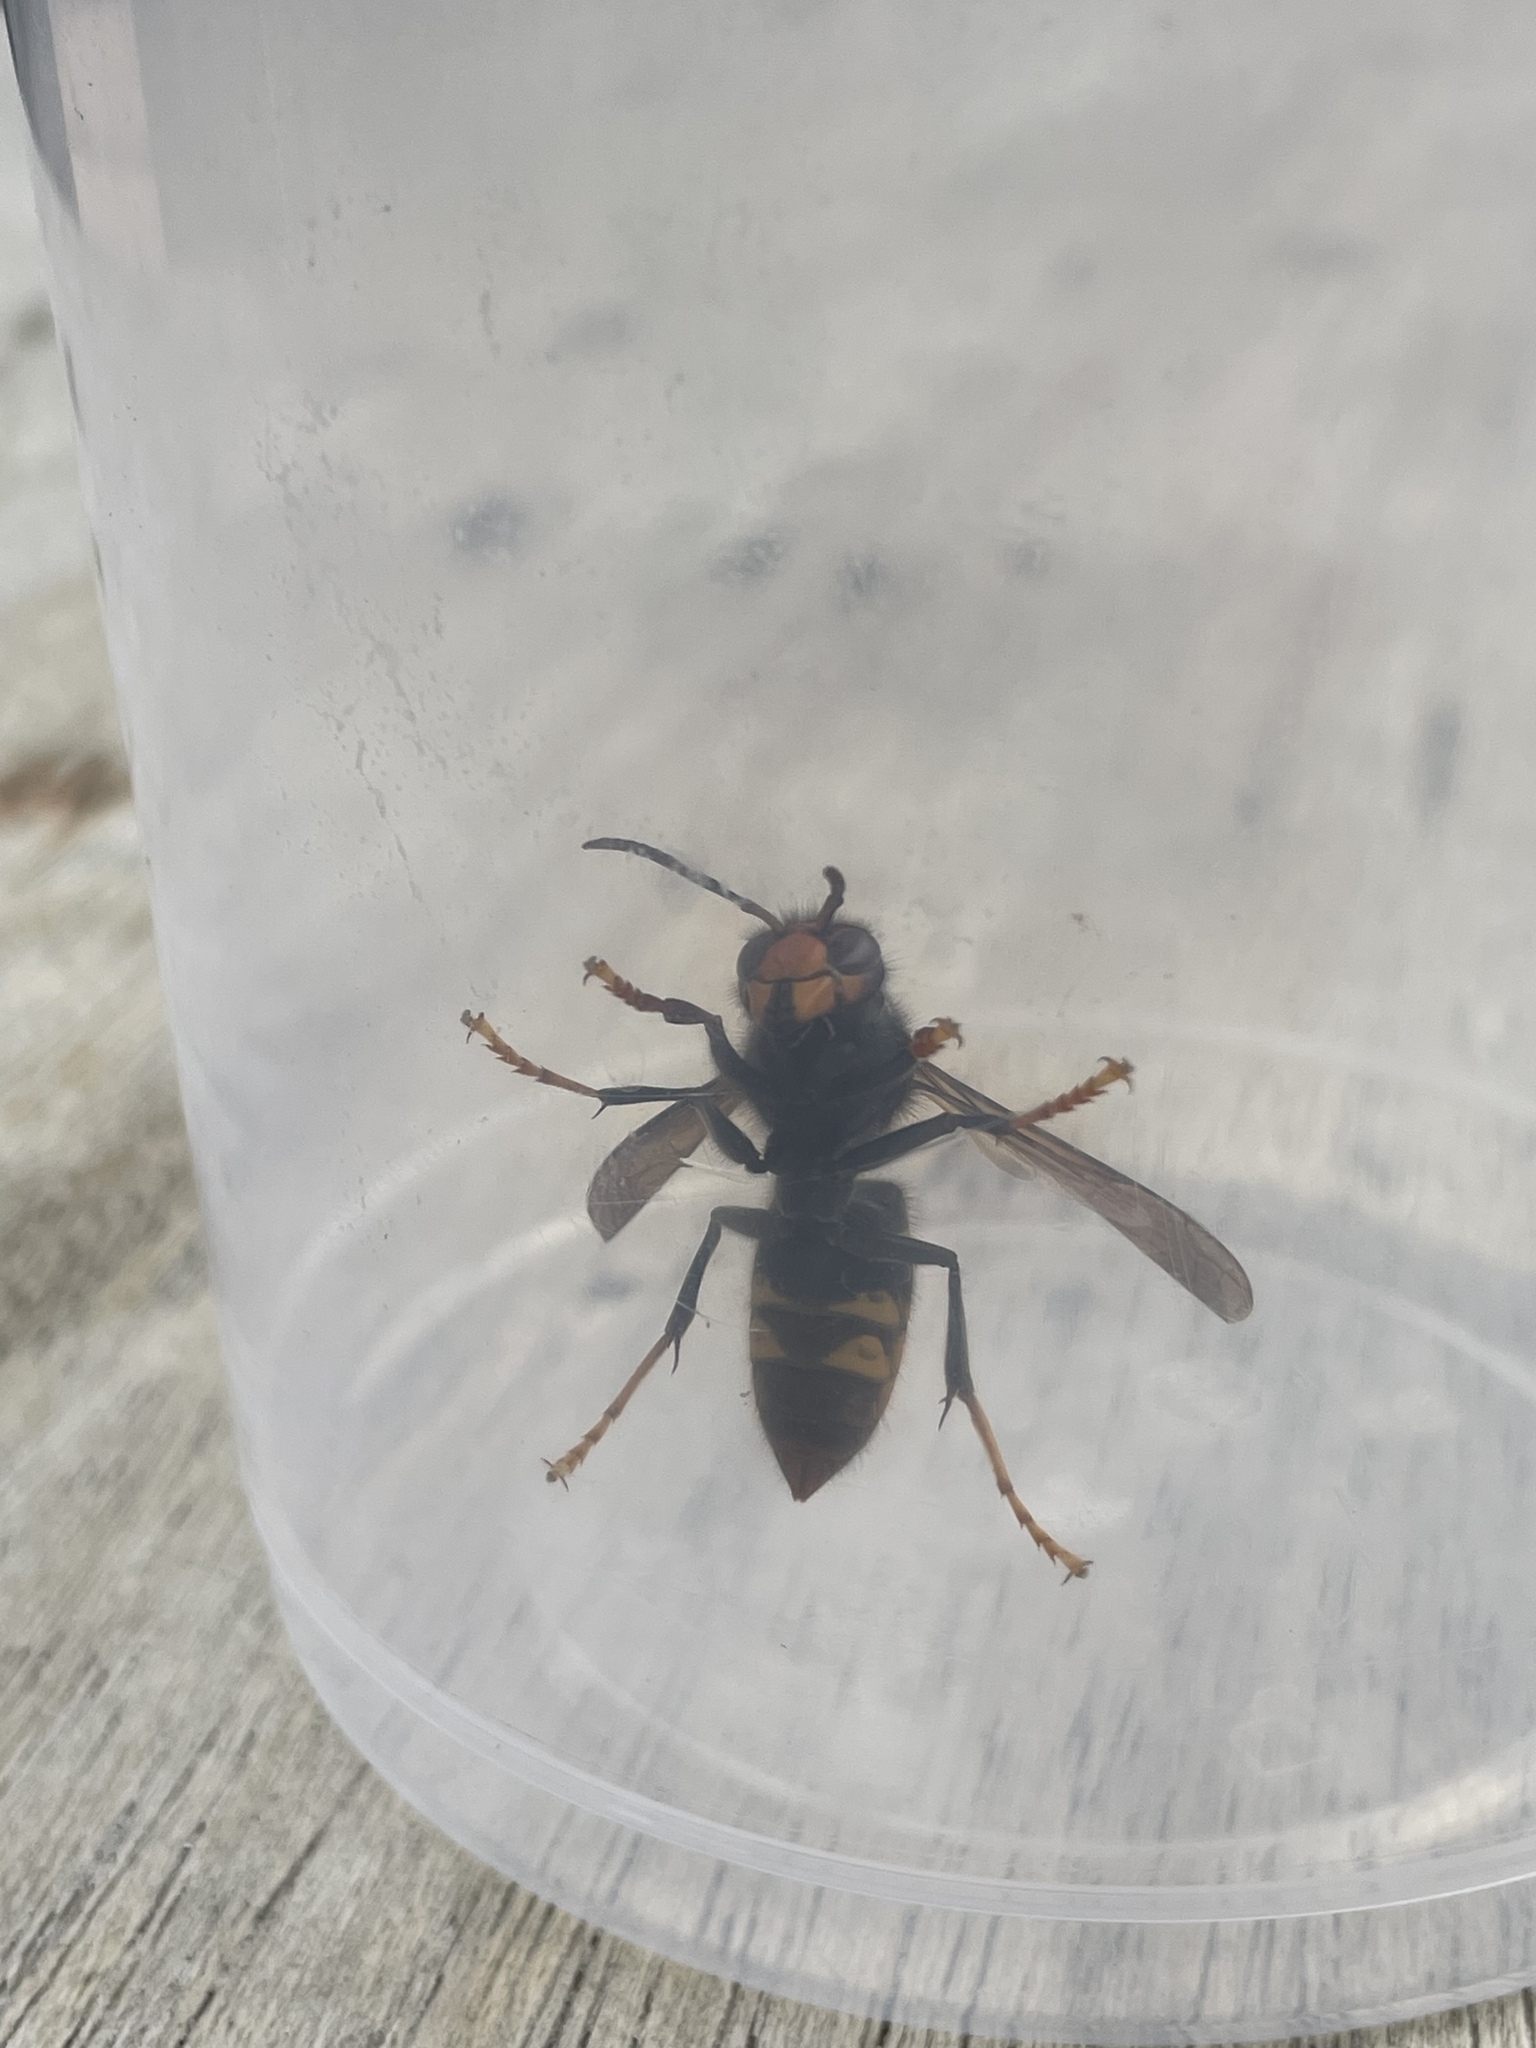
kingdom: Animalia
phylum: Arthropoda
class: Insecta
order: Hymenoptera
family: Vespidae
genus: Vespa
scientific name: Vespa velutina
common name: Asian hornet
